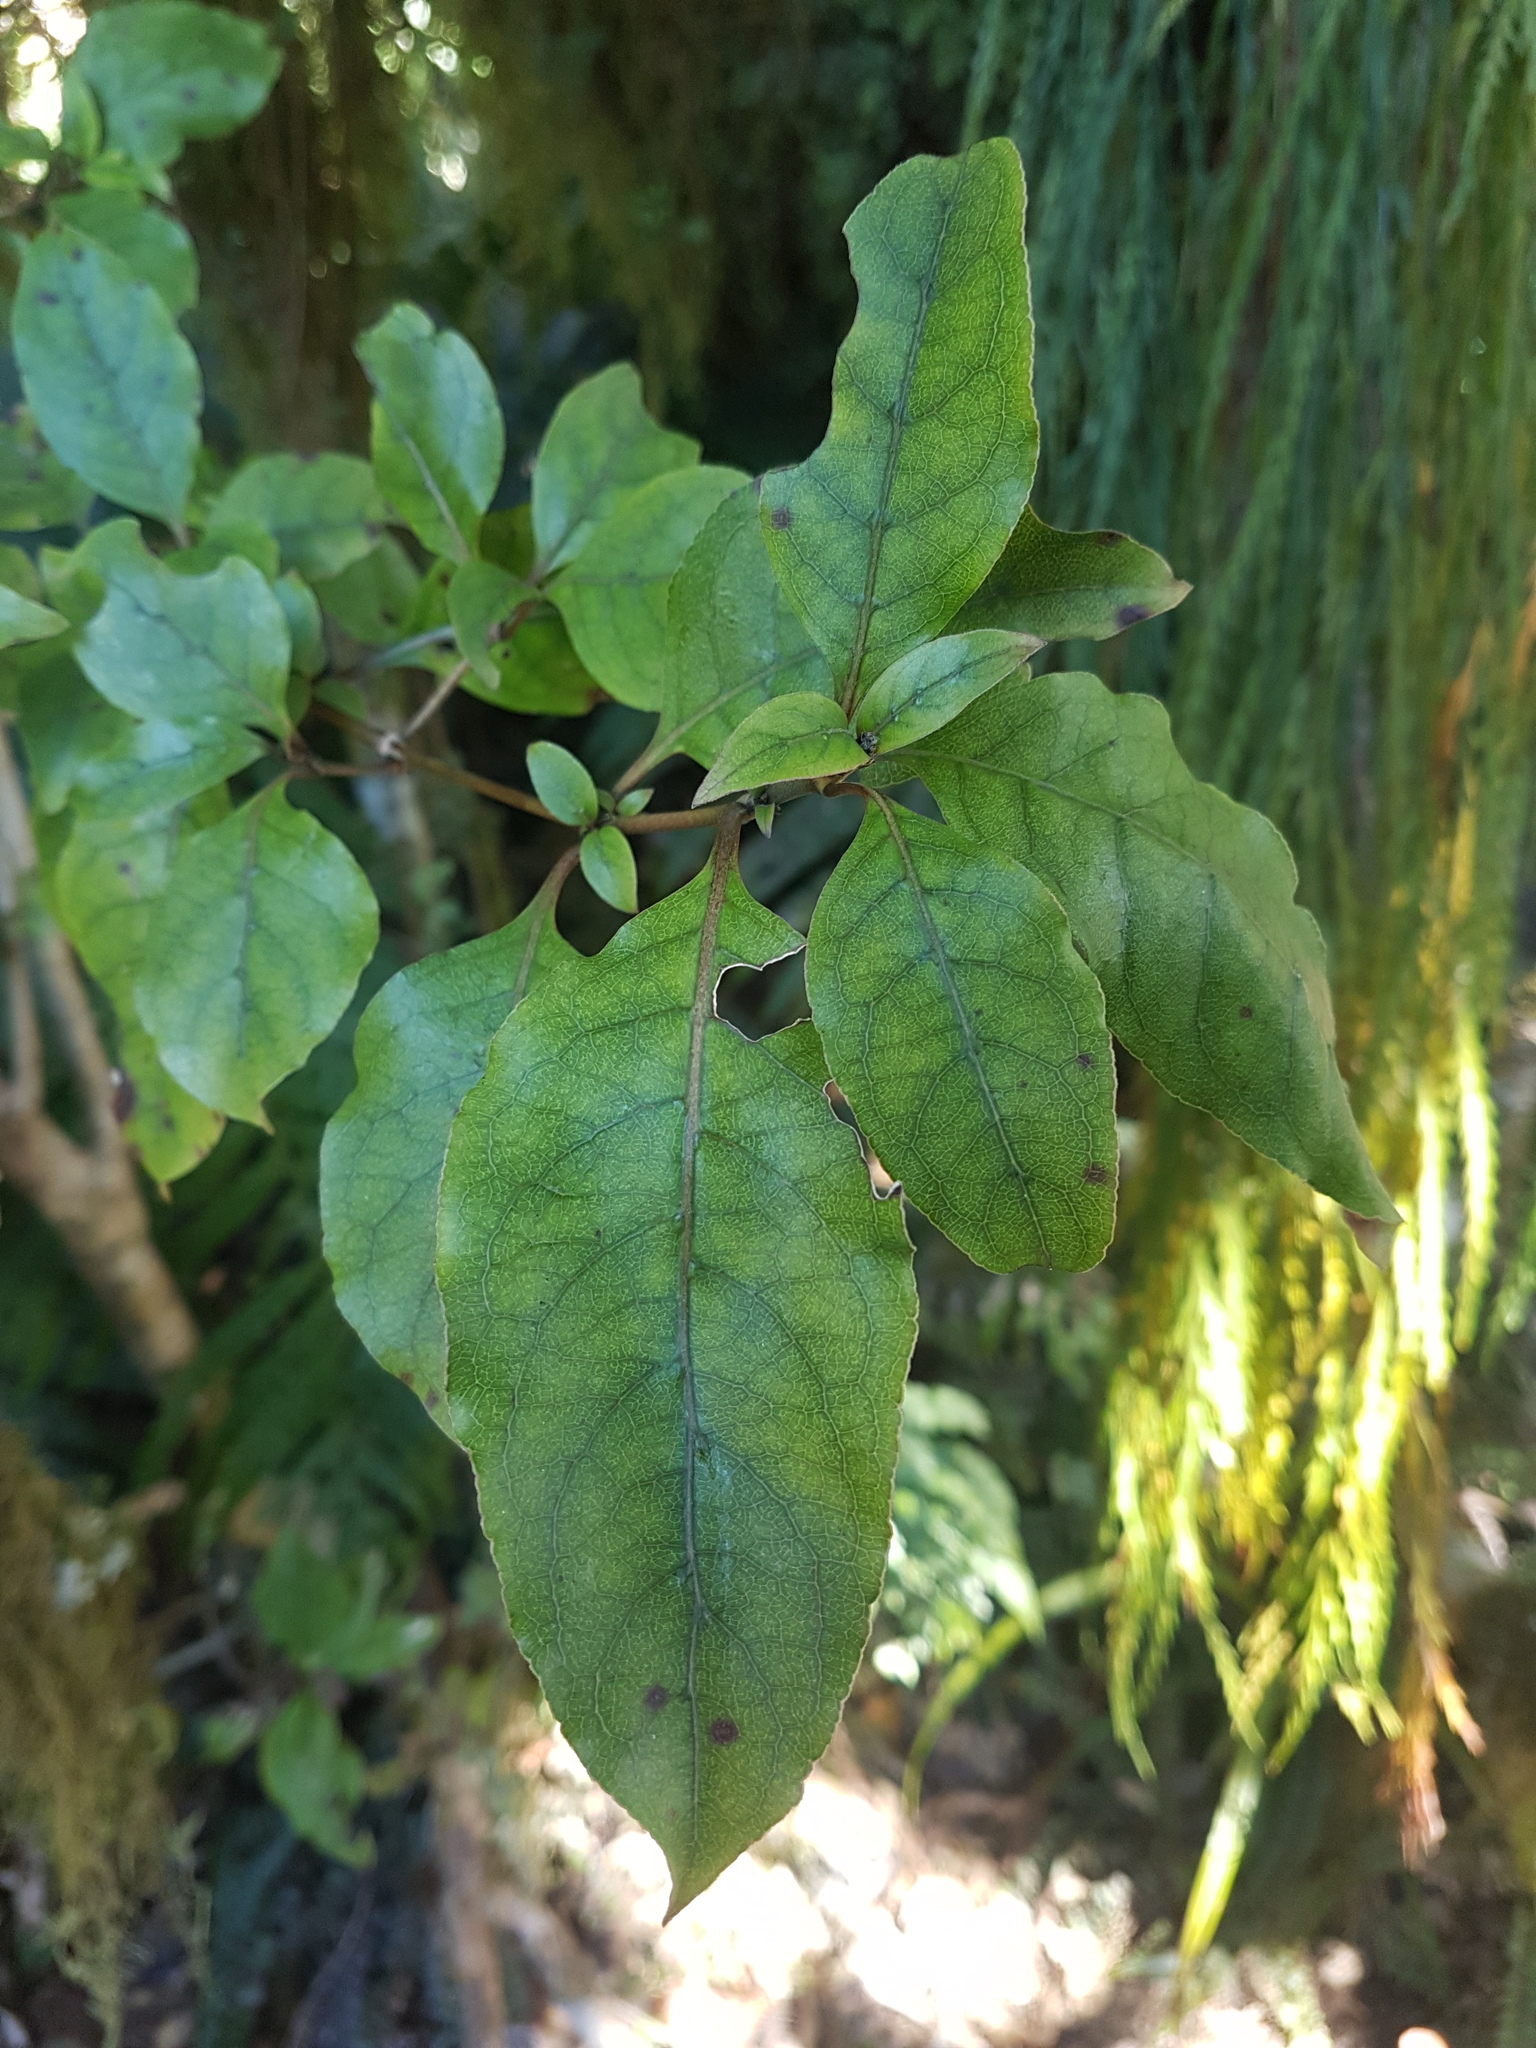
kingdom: Plantae
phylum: Tracheophyta
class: Magnoliopsida
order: Asterales
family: Asteraceae
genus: Olearia
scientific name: Olearia arborescens
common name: Glossy tree daisy
